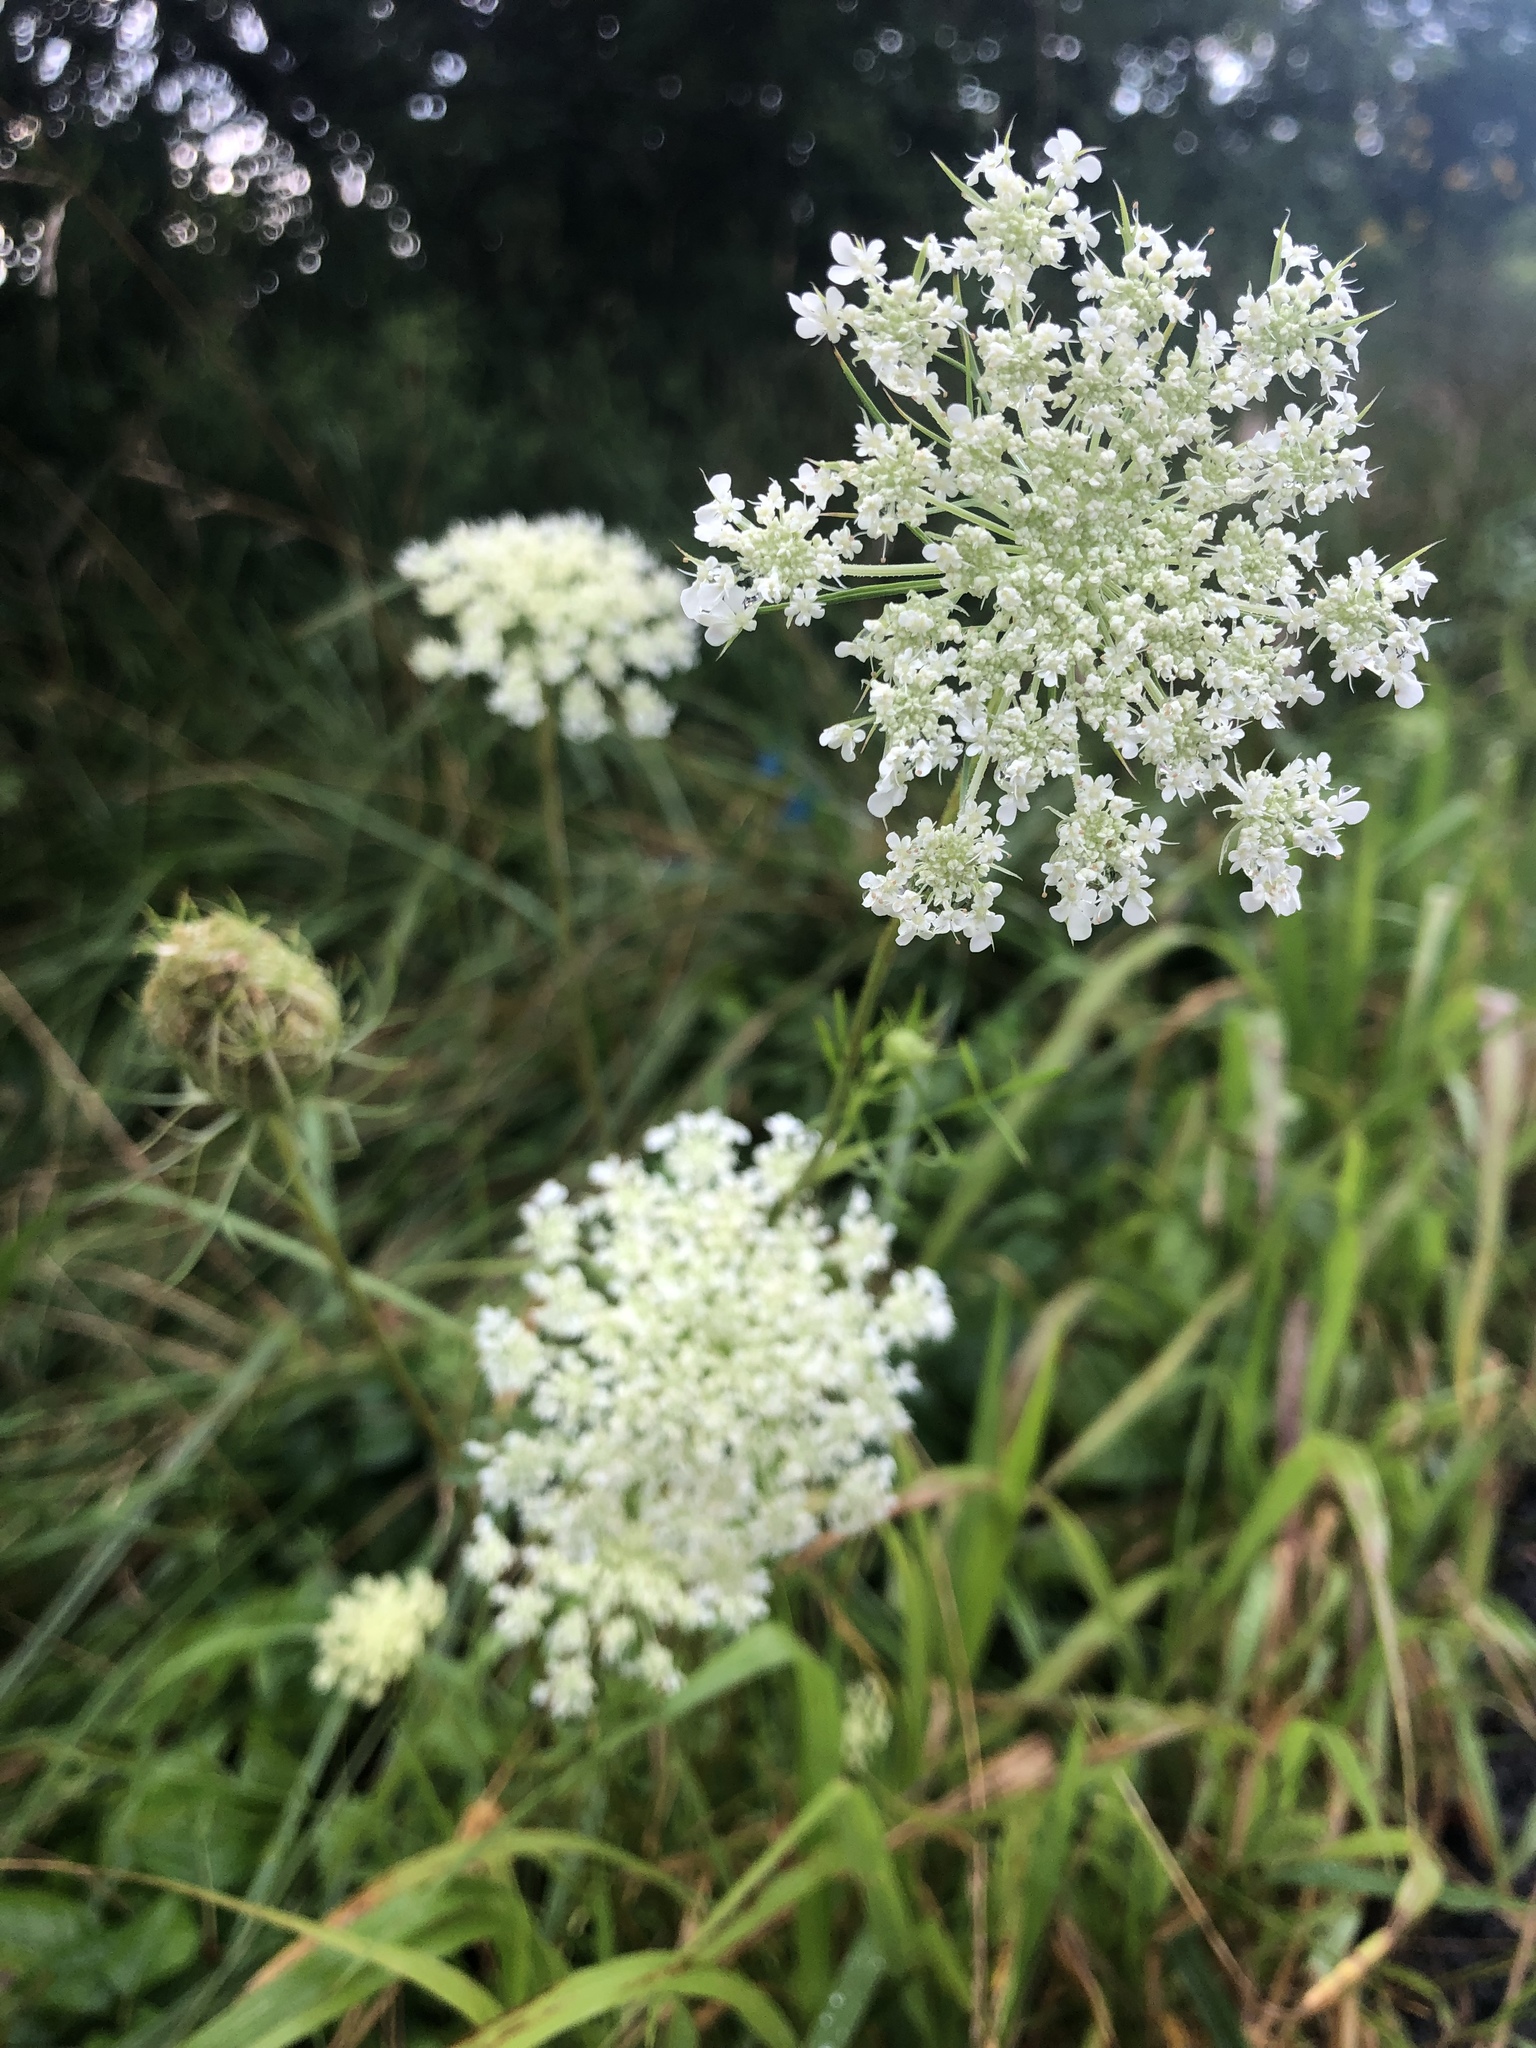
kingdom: Plantae
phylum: Tracheophyta
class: Magnoliopsida
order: Apiales
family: Apiaceae
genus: Daucus
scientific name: Daucus carota
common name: Wild carrot
